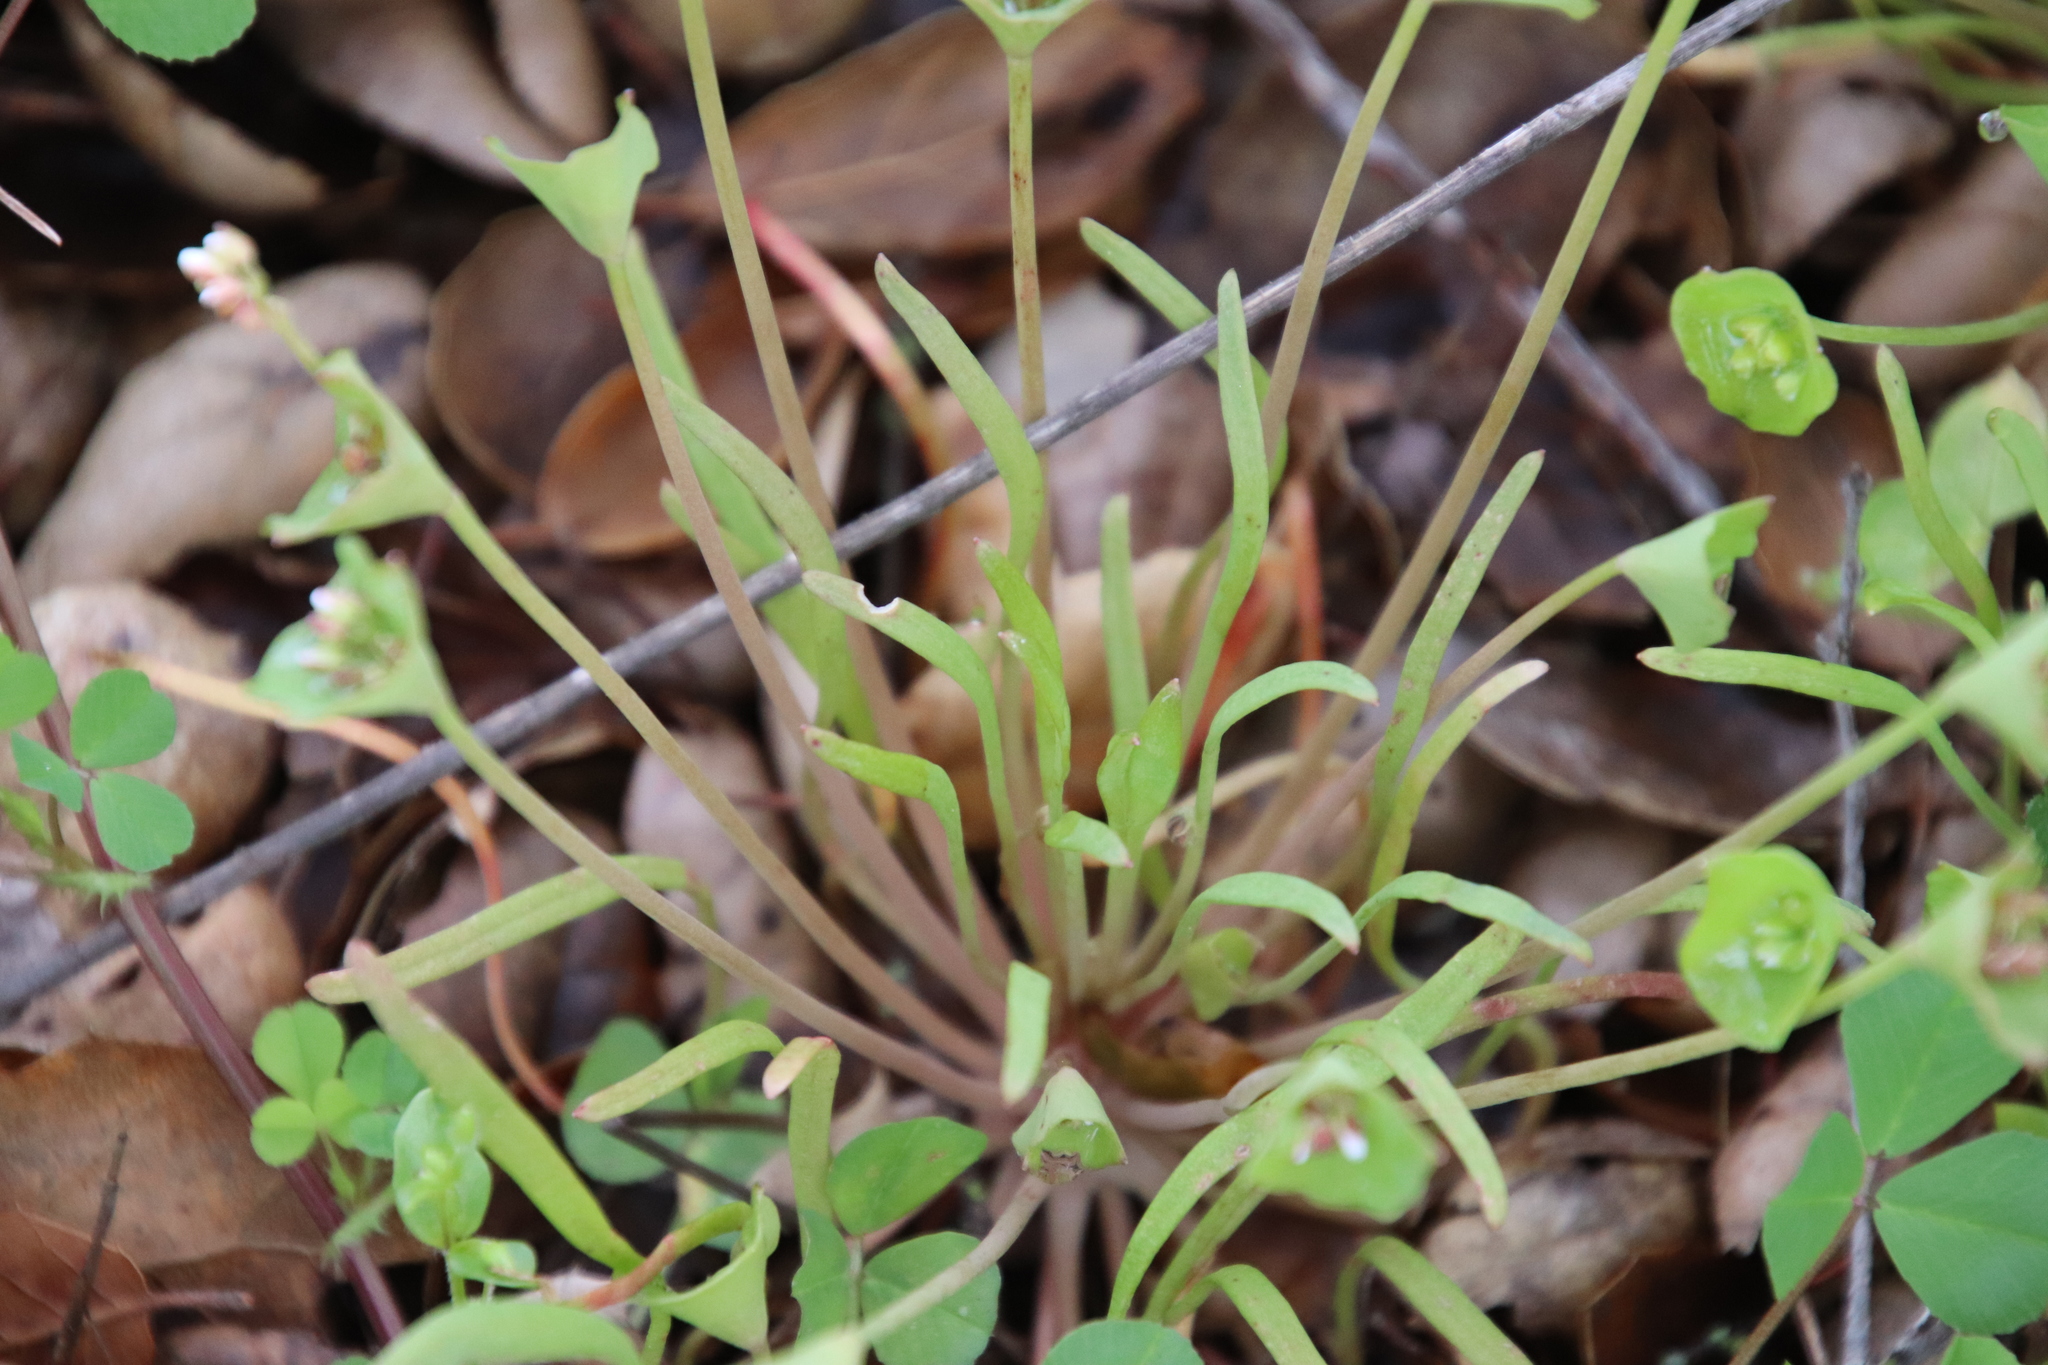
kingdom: Plantae
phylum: Tracheophyta
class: Magnoliopsida
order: Caryophyllales
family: Montiaceae
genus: Claytonia
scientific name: Claytonia parviflora
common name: Indian-lettuce
